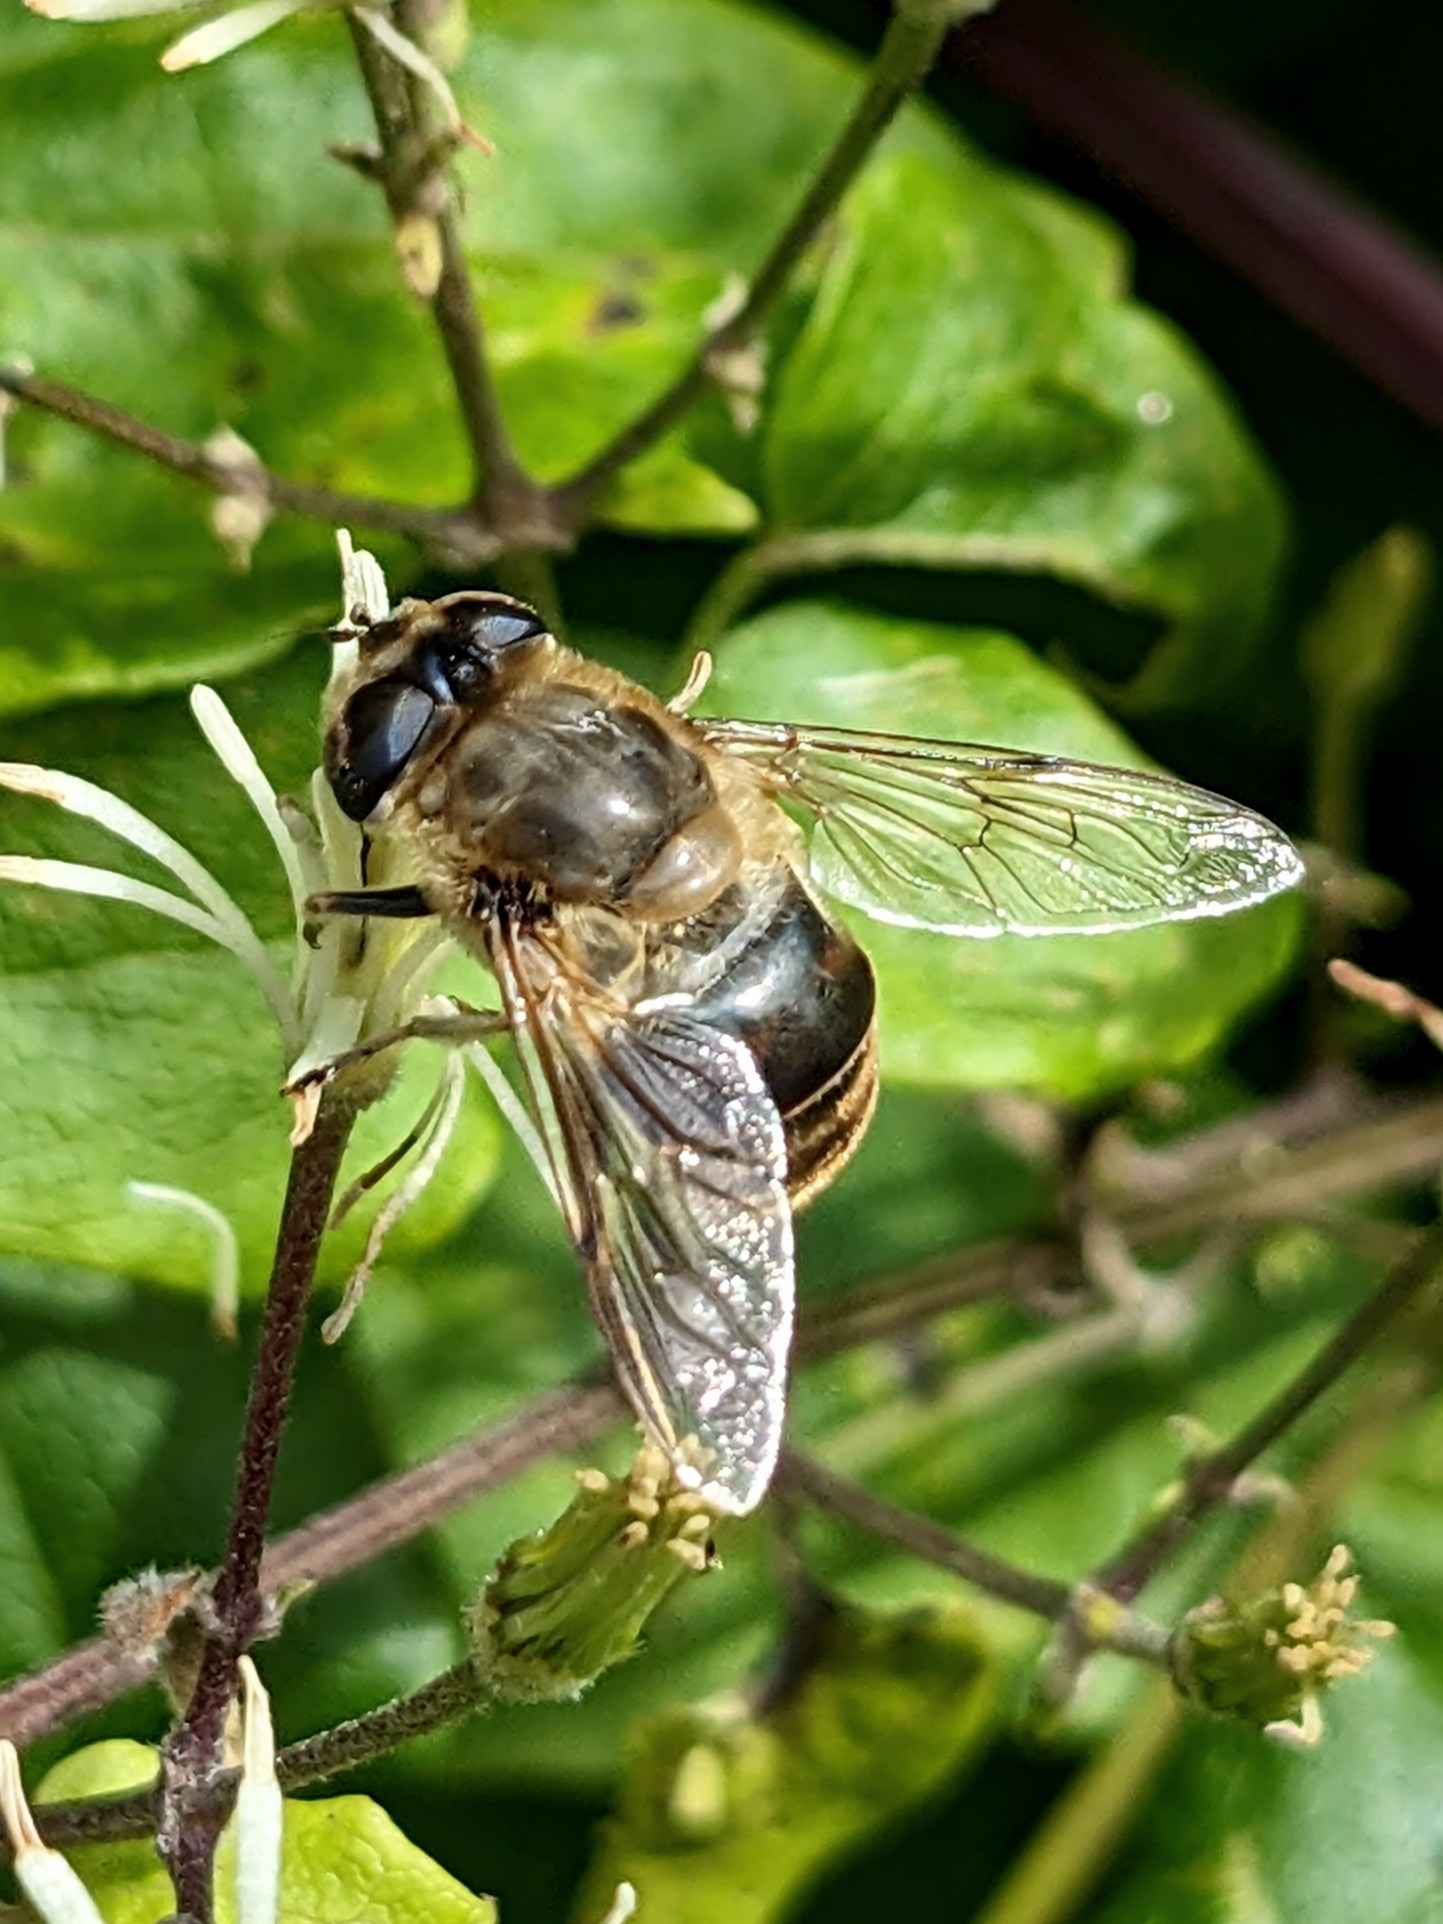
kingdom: Animalia
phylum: Arthropoda
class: Insecta
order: Diptera
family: Syrphidae
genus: Eristalis
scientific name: Eristalis tenax
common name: Drone fly
